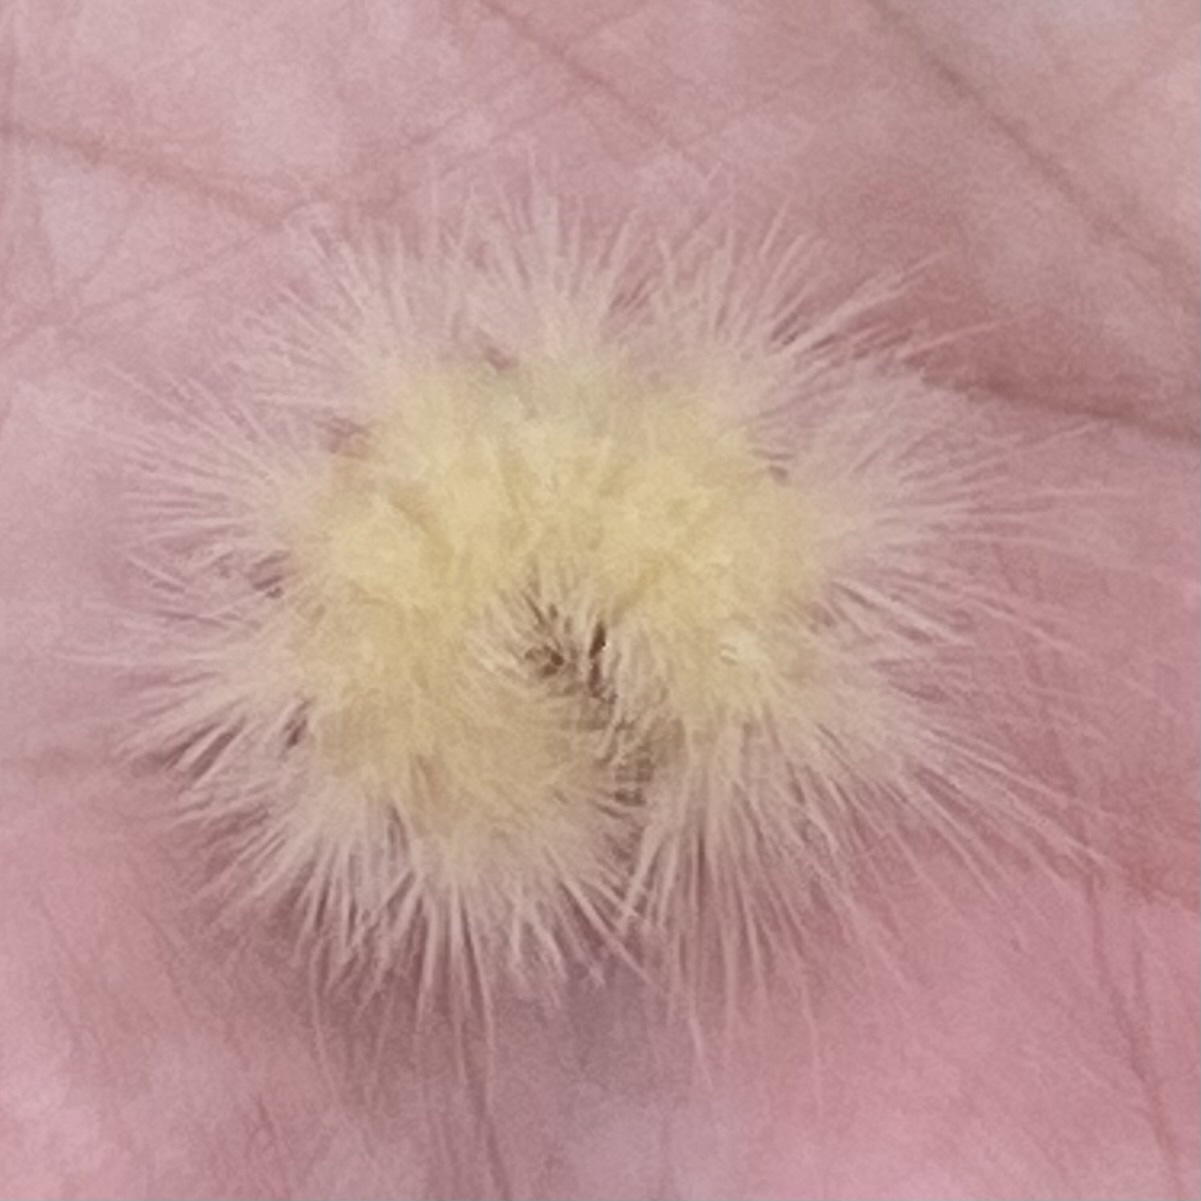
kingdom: Animalia
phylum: Arthropoda
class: Insecta
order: Lepidoptera
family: Erebidae
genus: Spilosoma
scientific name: Spilosoma virginica
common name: Virginia tiger moth
